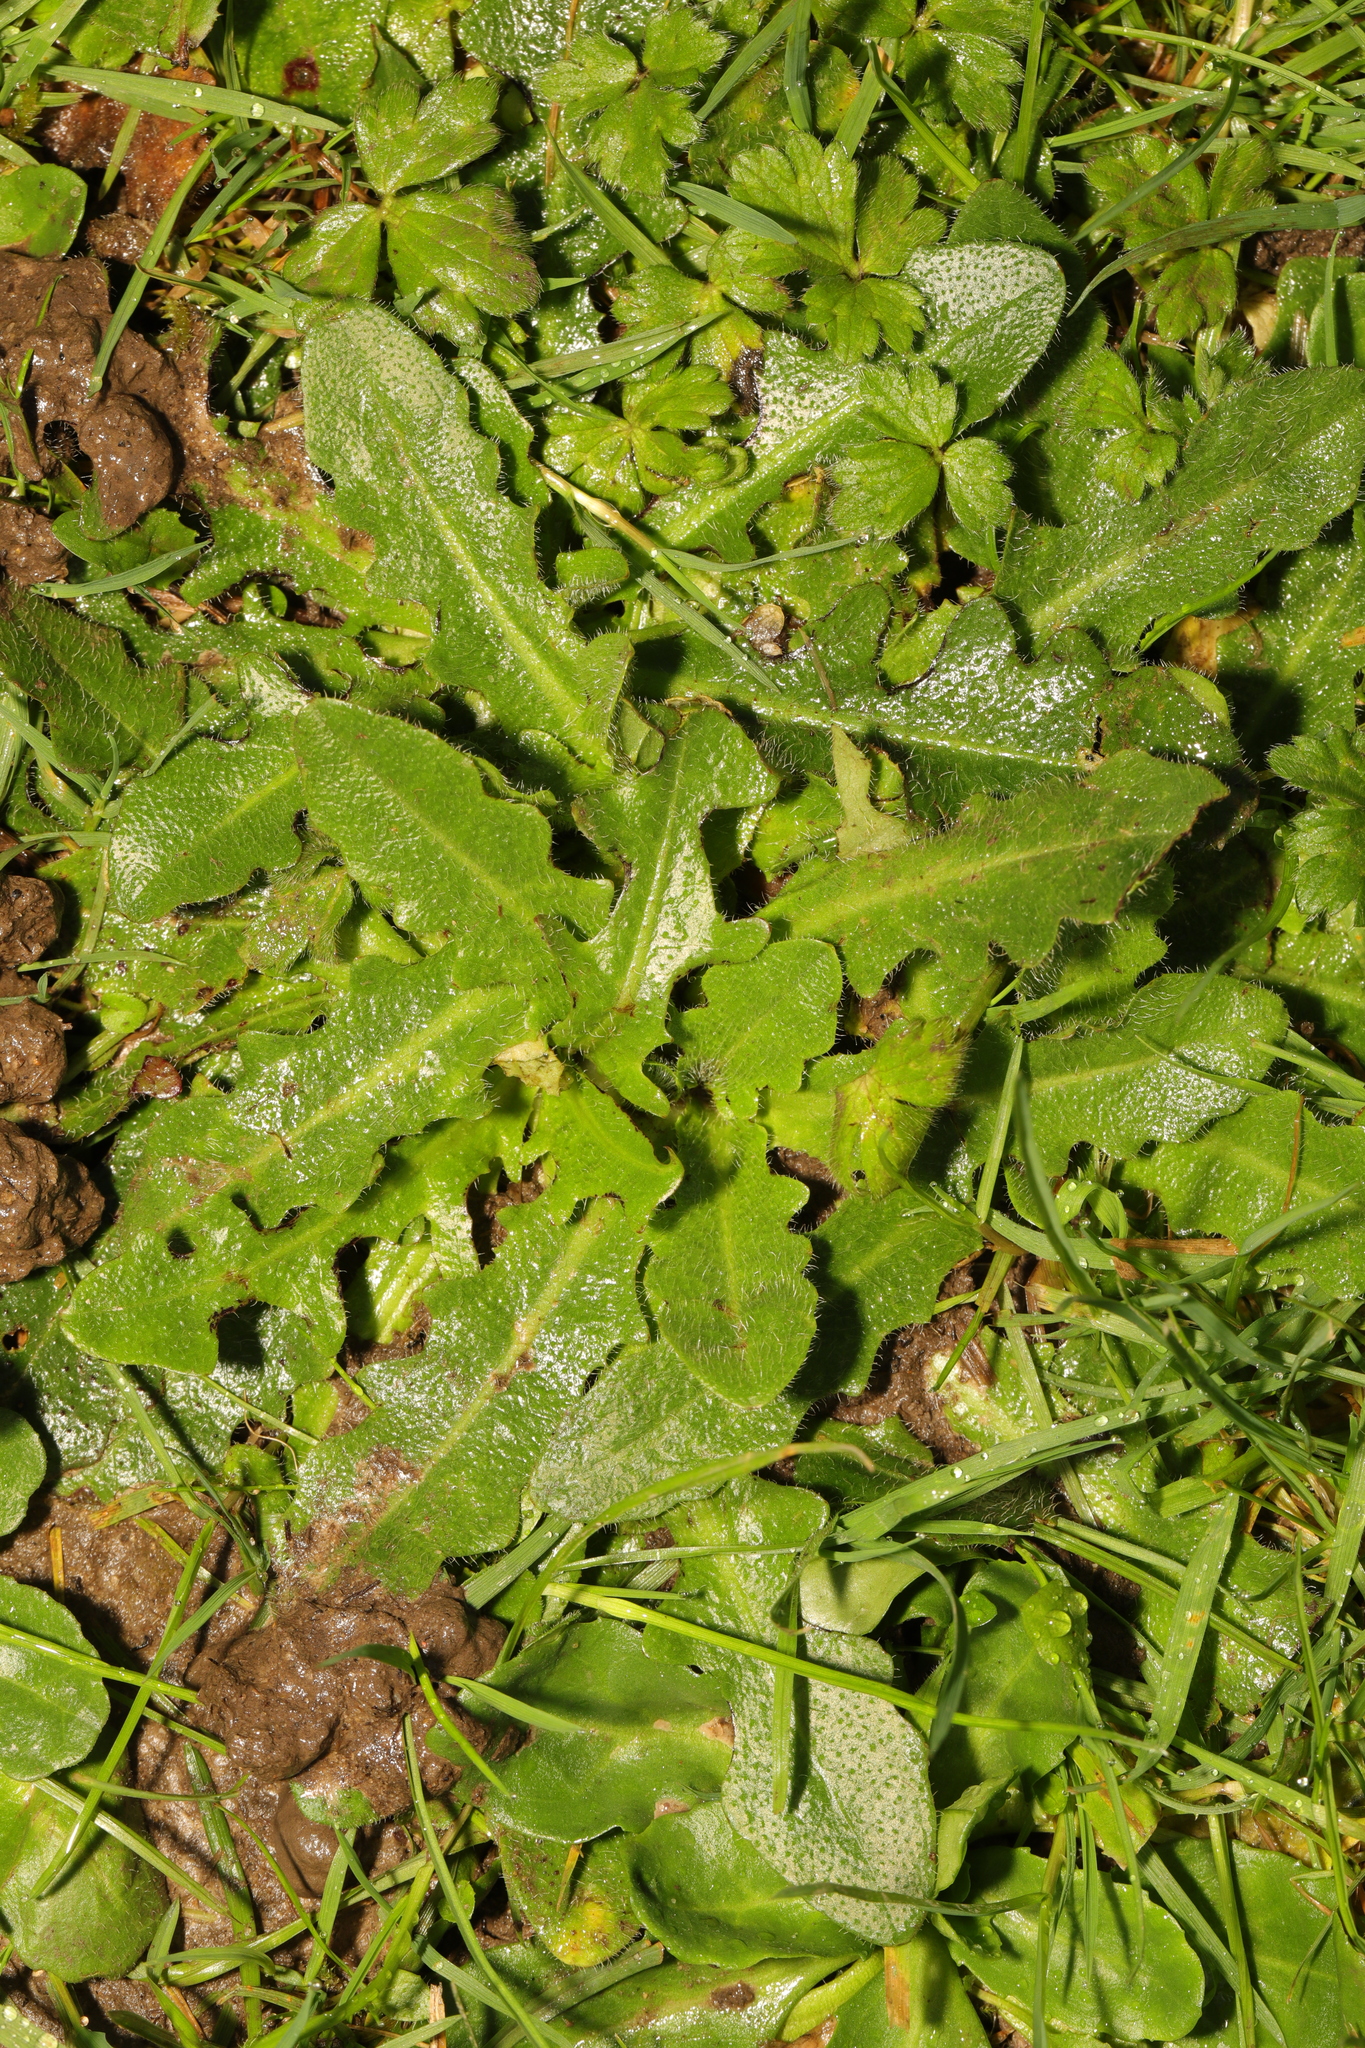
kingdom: Plantae
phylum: Tracheophyta
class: Magnoliopsida
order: Asterales
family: Asteraceae
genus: Hypochaeris
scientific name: Hypochaeris radicata
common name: Flatweed
